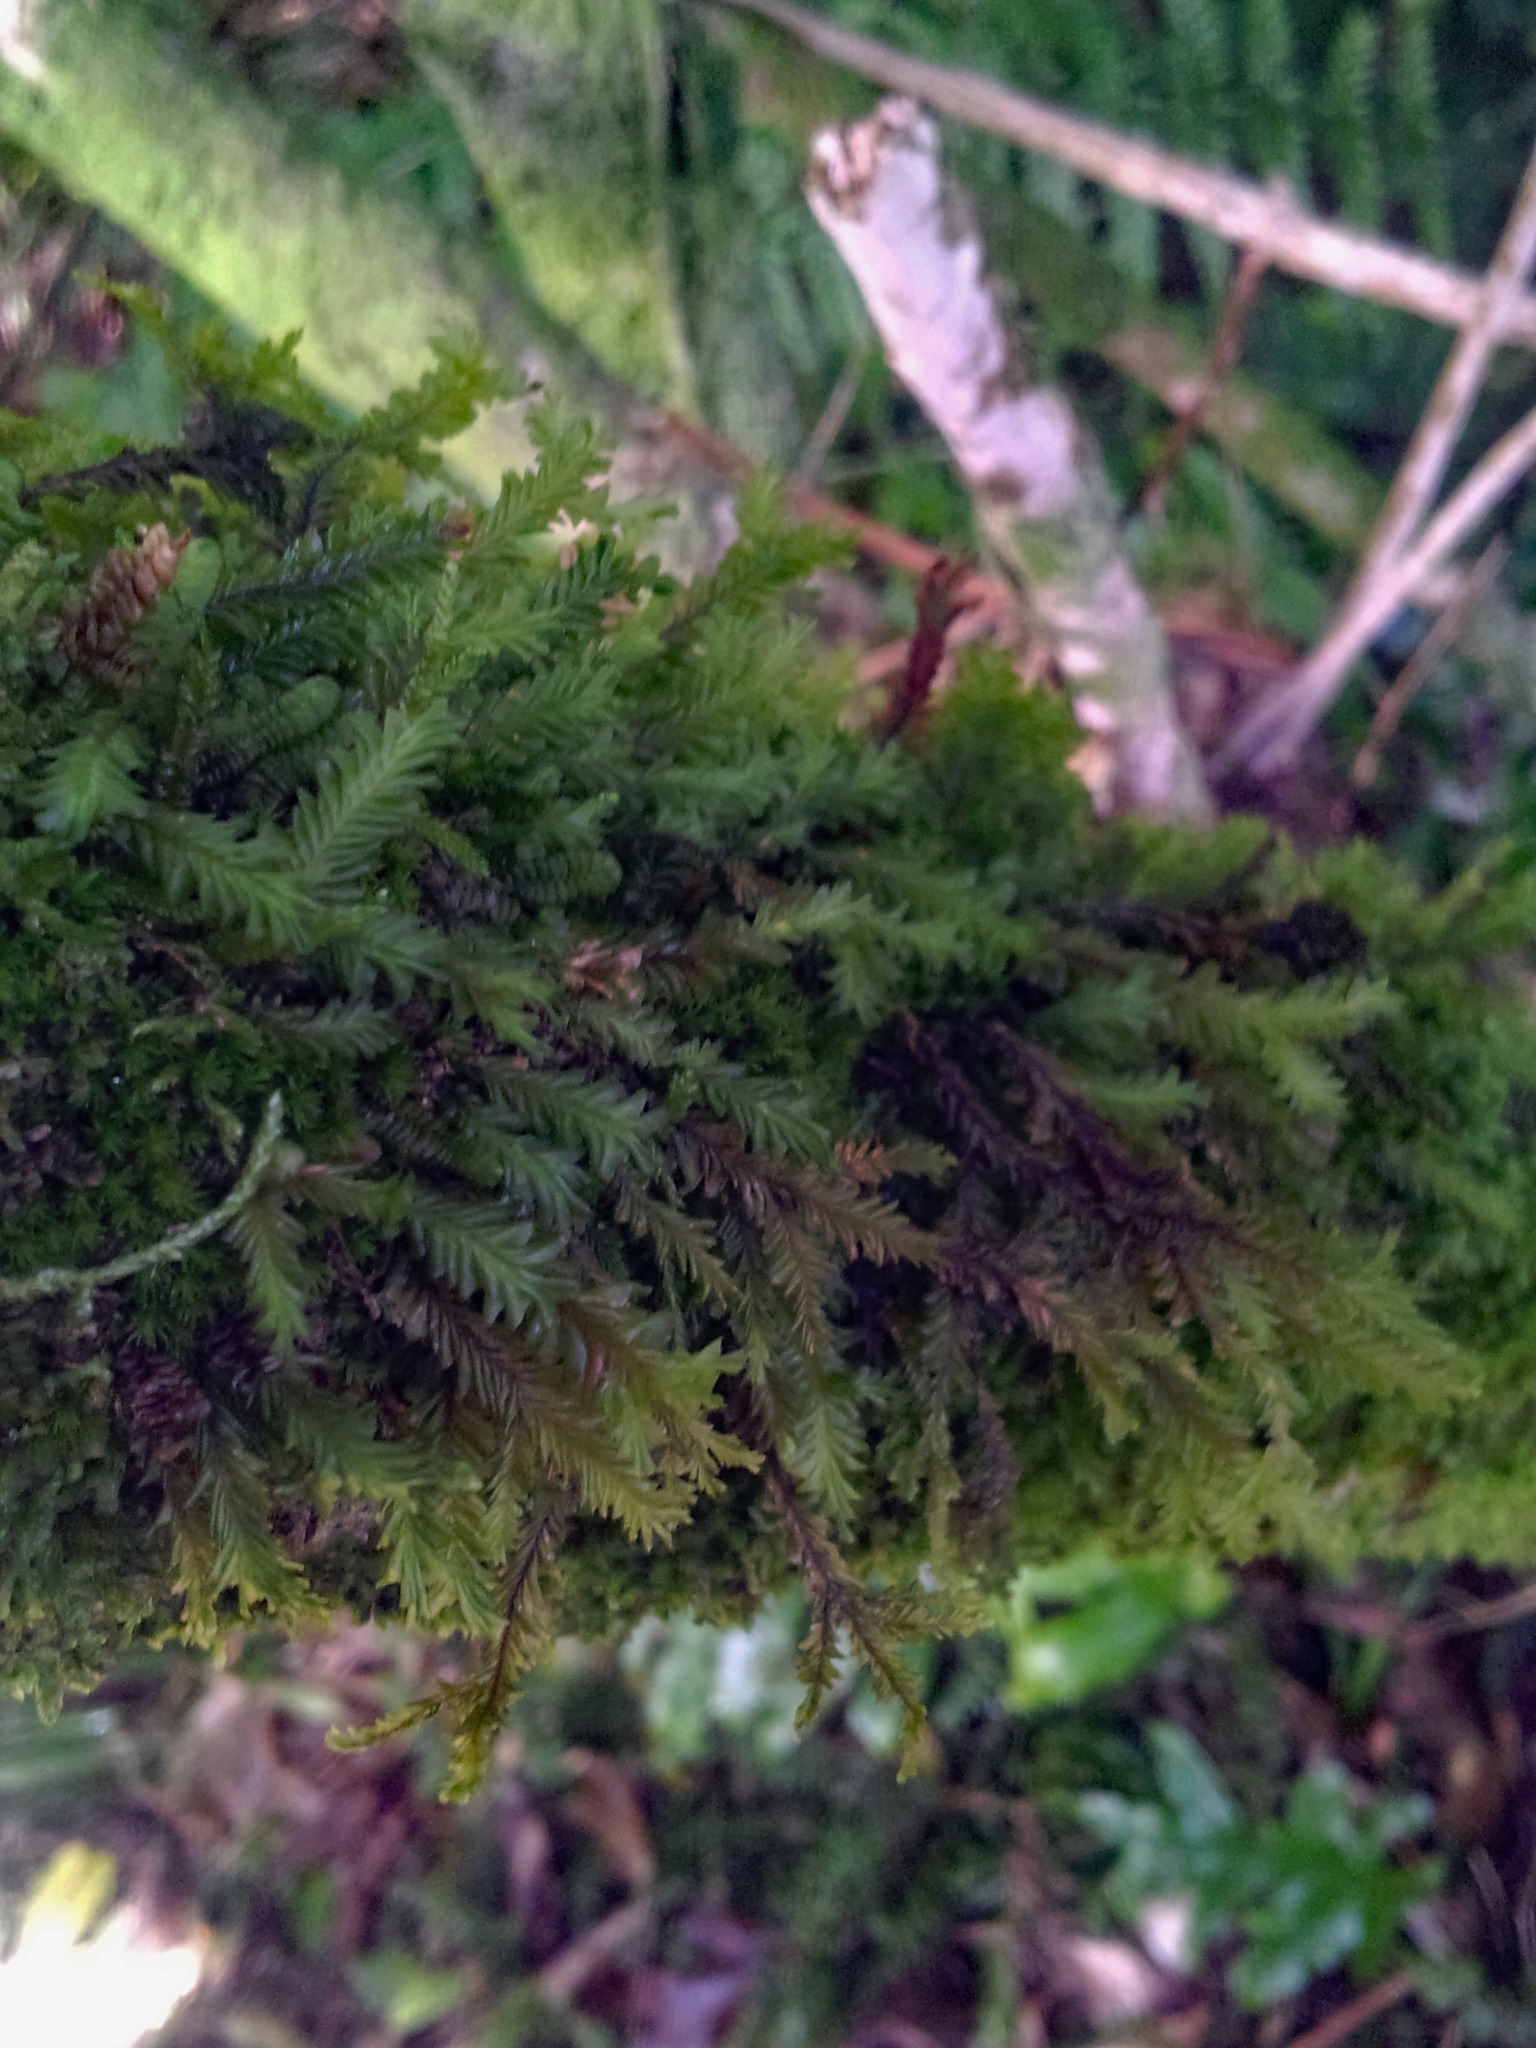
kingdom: Plantae
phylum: Marchantiophyta
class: Jungermanniopsida
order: Jungermanniales
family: Plagiochilaceae
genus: Plagiochila
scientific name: Plagiochila arbuscula
